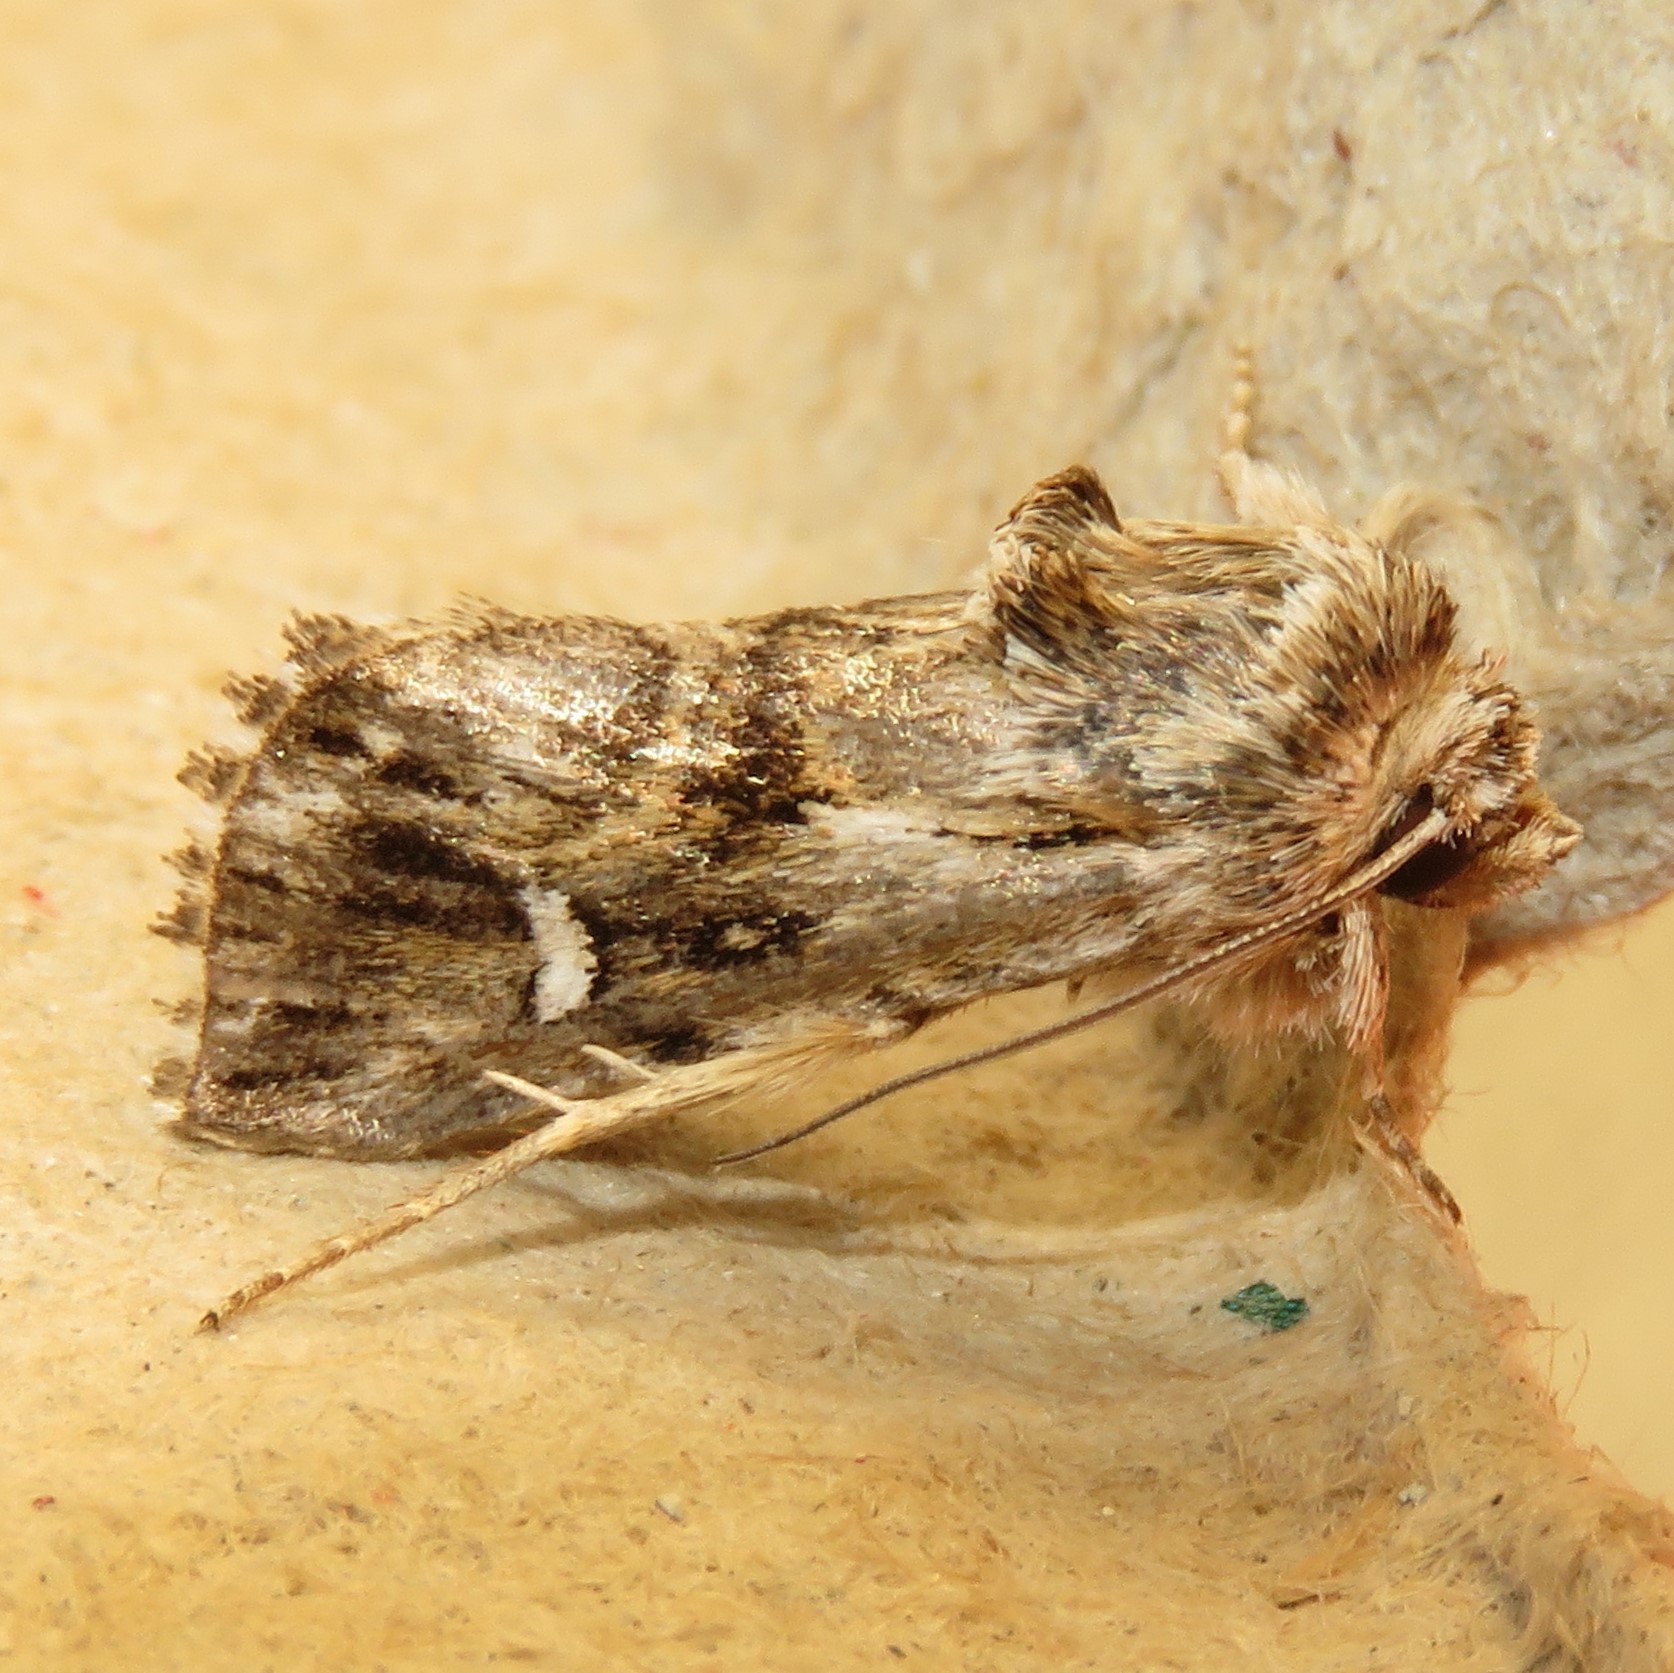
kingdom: Animalia
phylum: Arthropoda
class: Insecta
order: Lepidoptera
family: Noctuidae
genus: Calophasia
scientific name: Calophasia lunula
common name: Toadflax brocade
